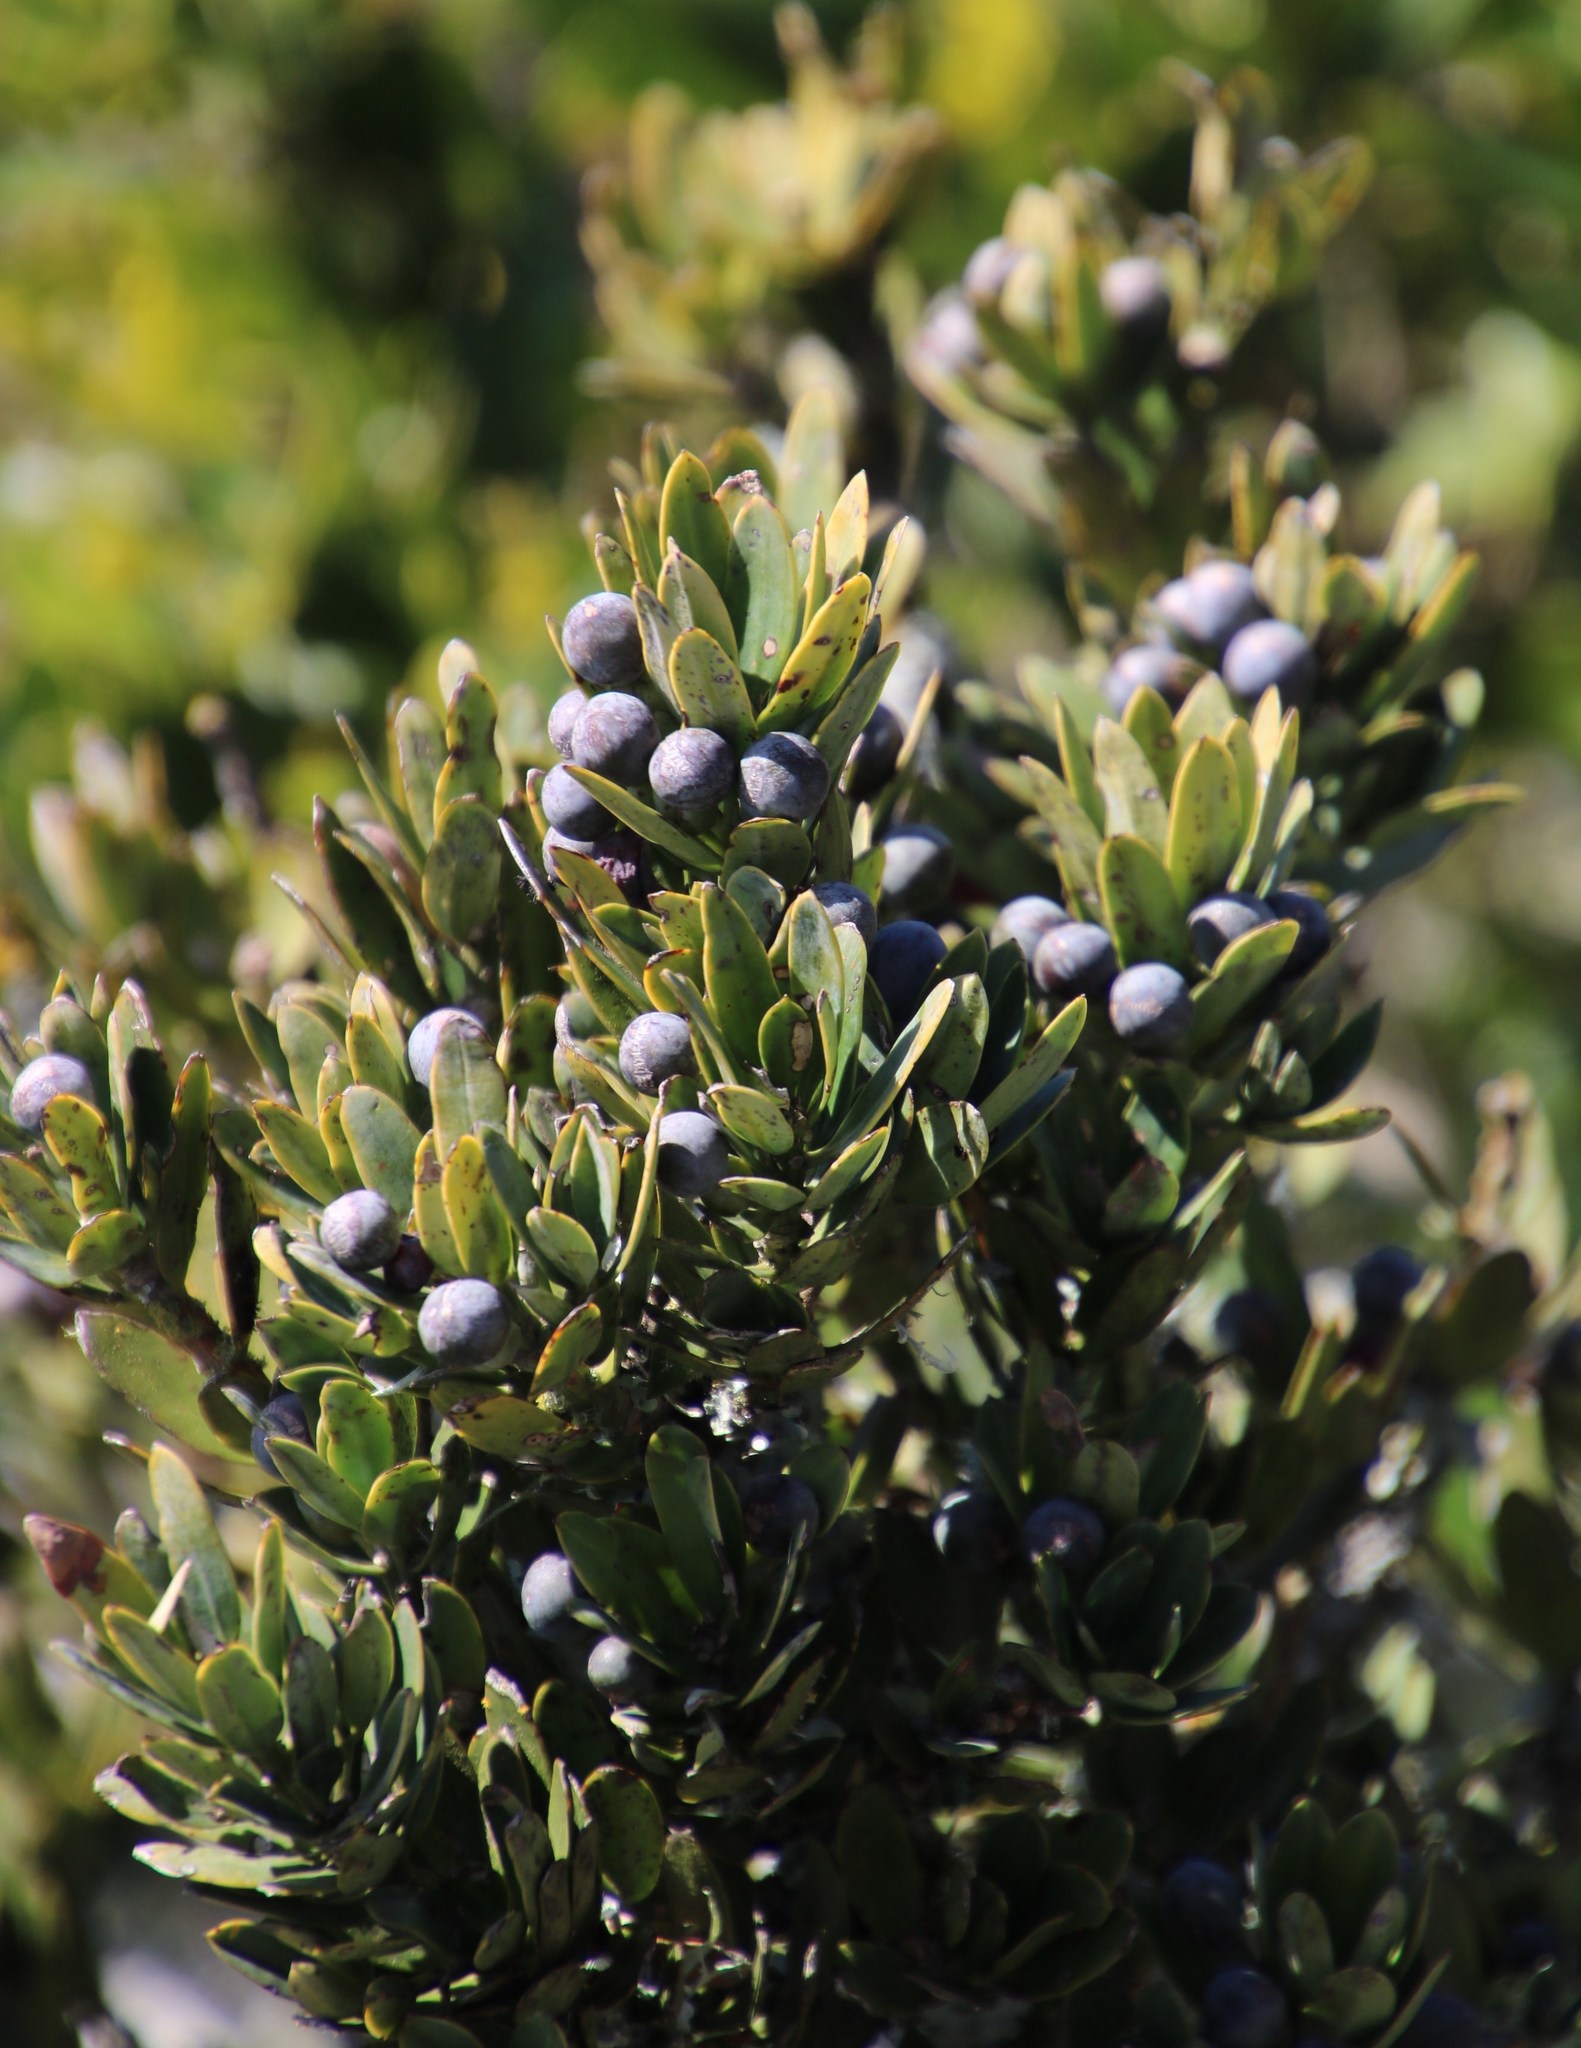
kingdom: Plantae
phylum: Tracheophyta
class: Pinopsida
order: Pinales
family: Podocarpaceae
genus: Podocarpus
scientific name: Podocarpus latifolius
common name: True yellowwood
